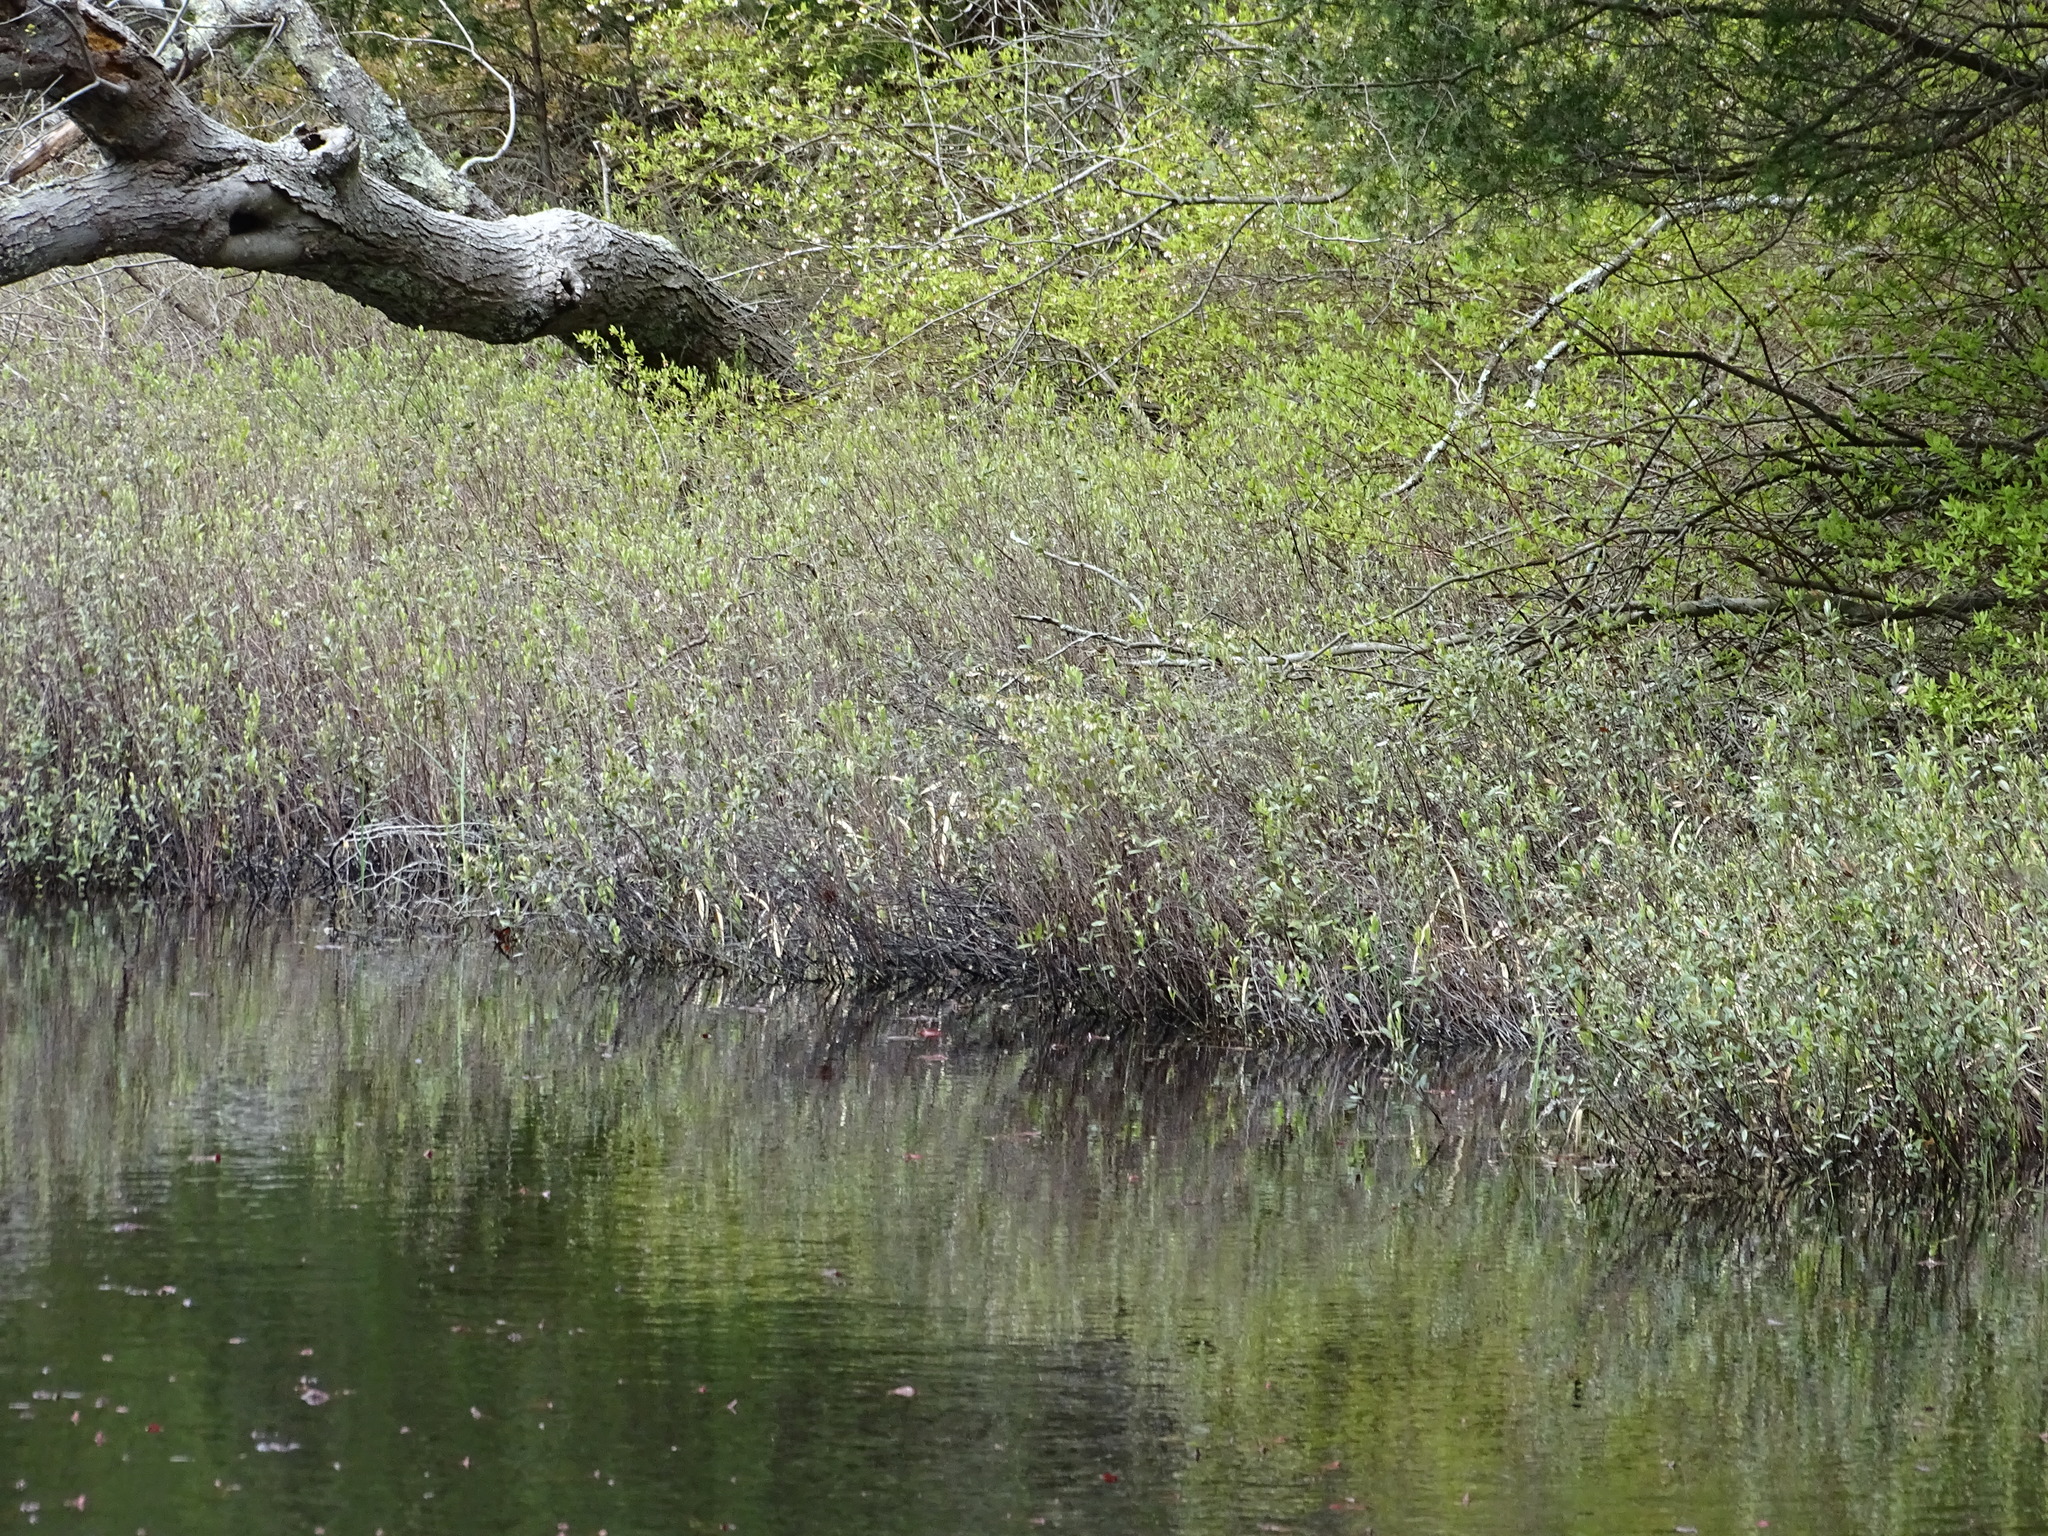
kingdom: Plantae
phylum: Tracheophyta
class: Magnoliopsida
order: Ericales
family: Ericaceae
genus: Chamaedaphne
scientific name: Chamaedaphne calyculata
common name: Leatherleaf
